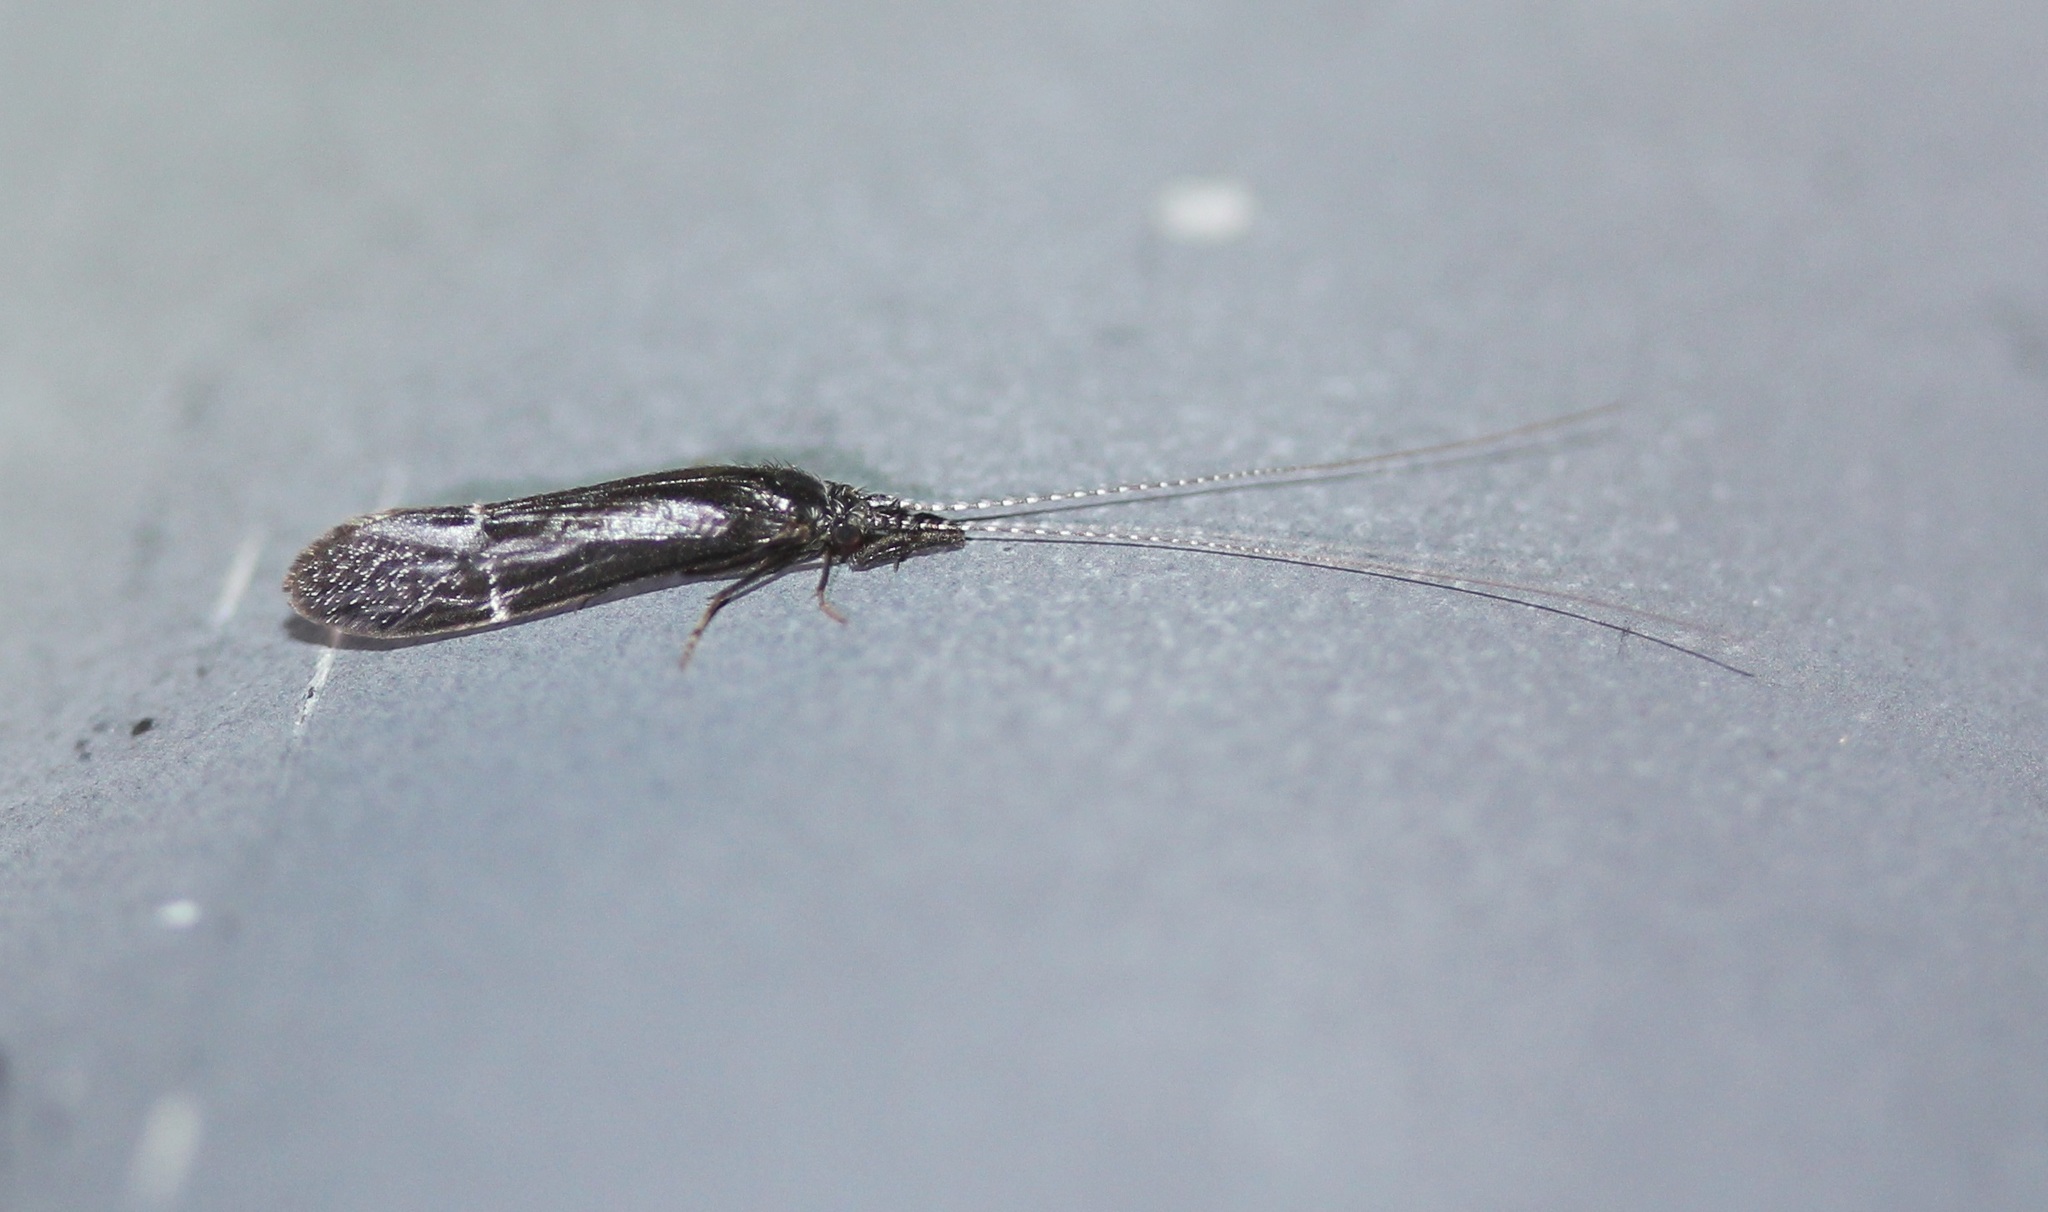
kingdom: Animalia
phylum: Arthropoda
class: Insecta
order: Trichoptera
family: Leptoceridae
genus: Ceraclea
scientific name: Ceraclea punctata
